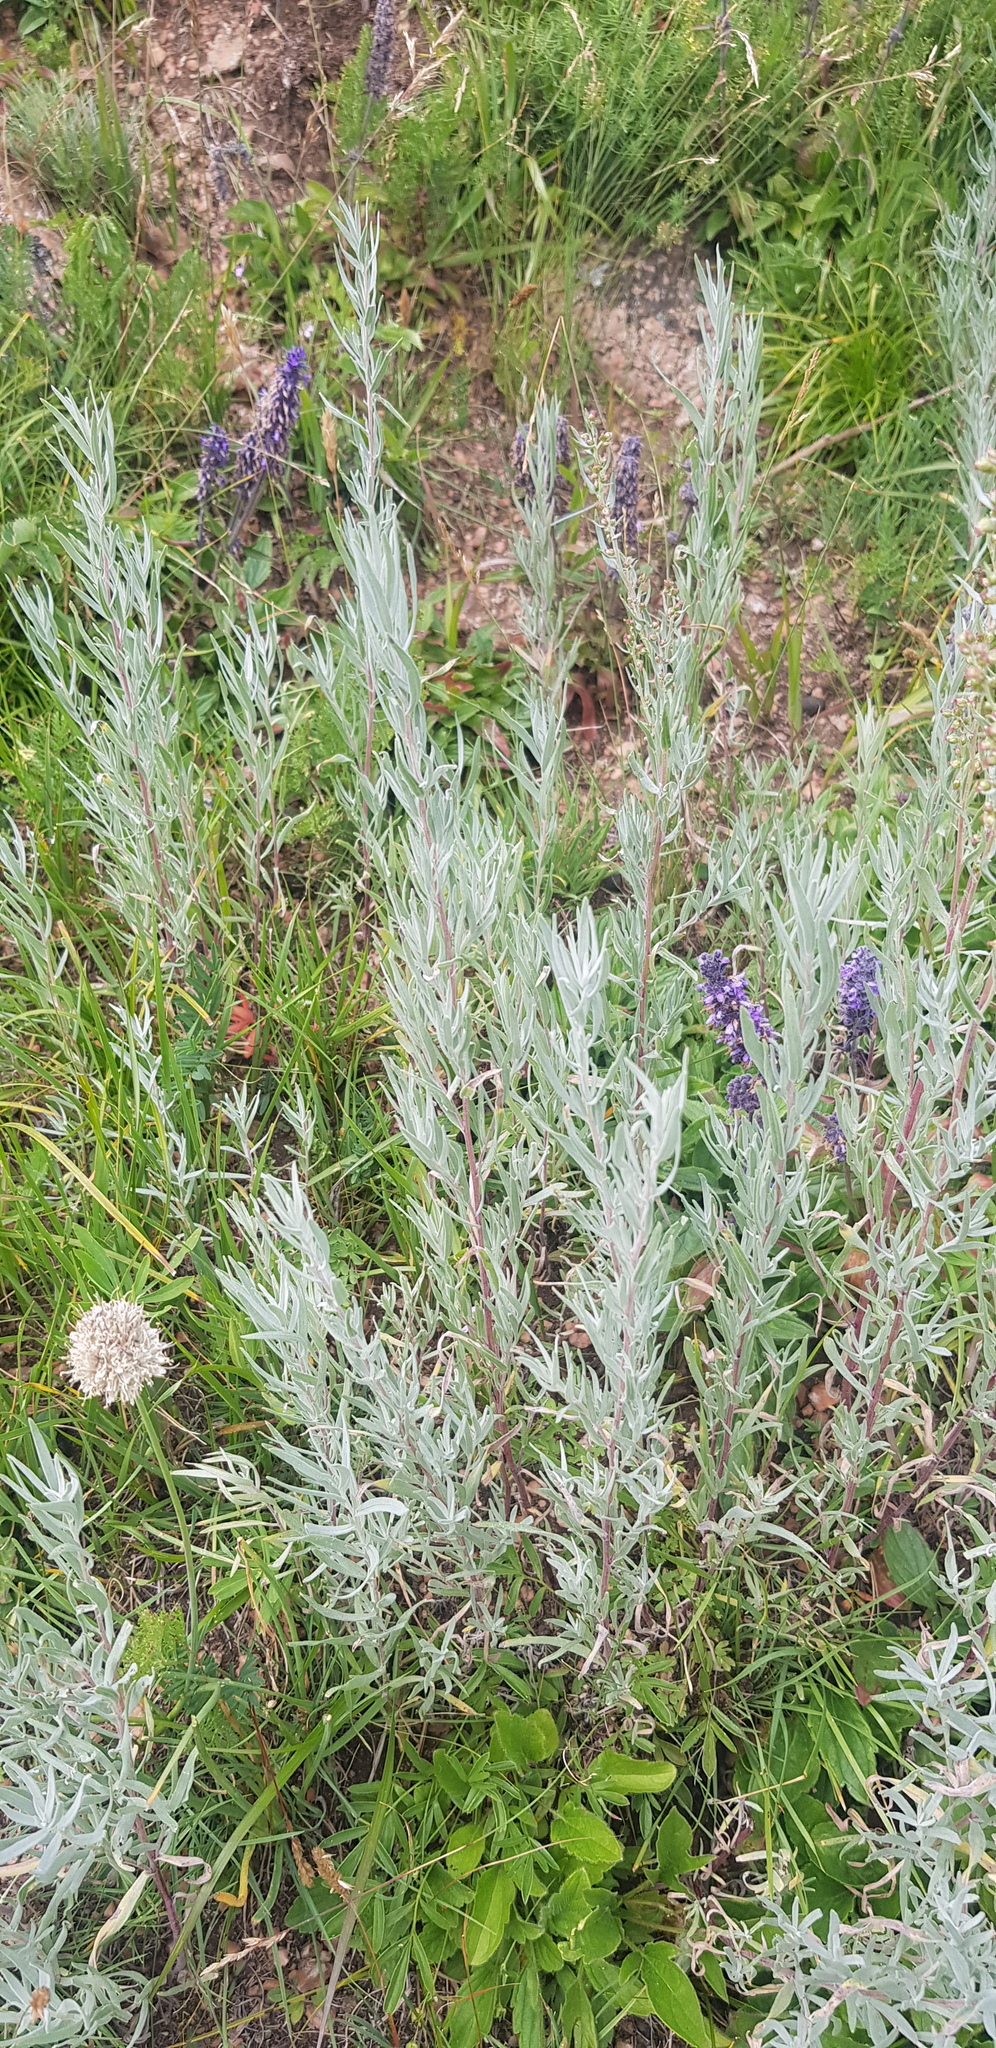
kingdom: Plantae
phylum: Tracheophyta
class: Magnoliopsida
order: Asterales
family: Asteraceae
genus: Artemisia
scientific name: Artemisia glauca
